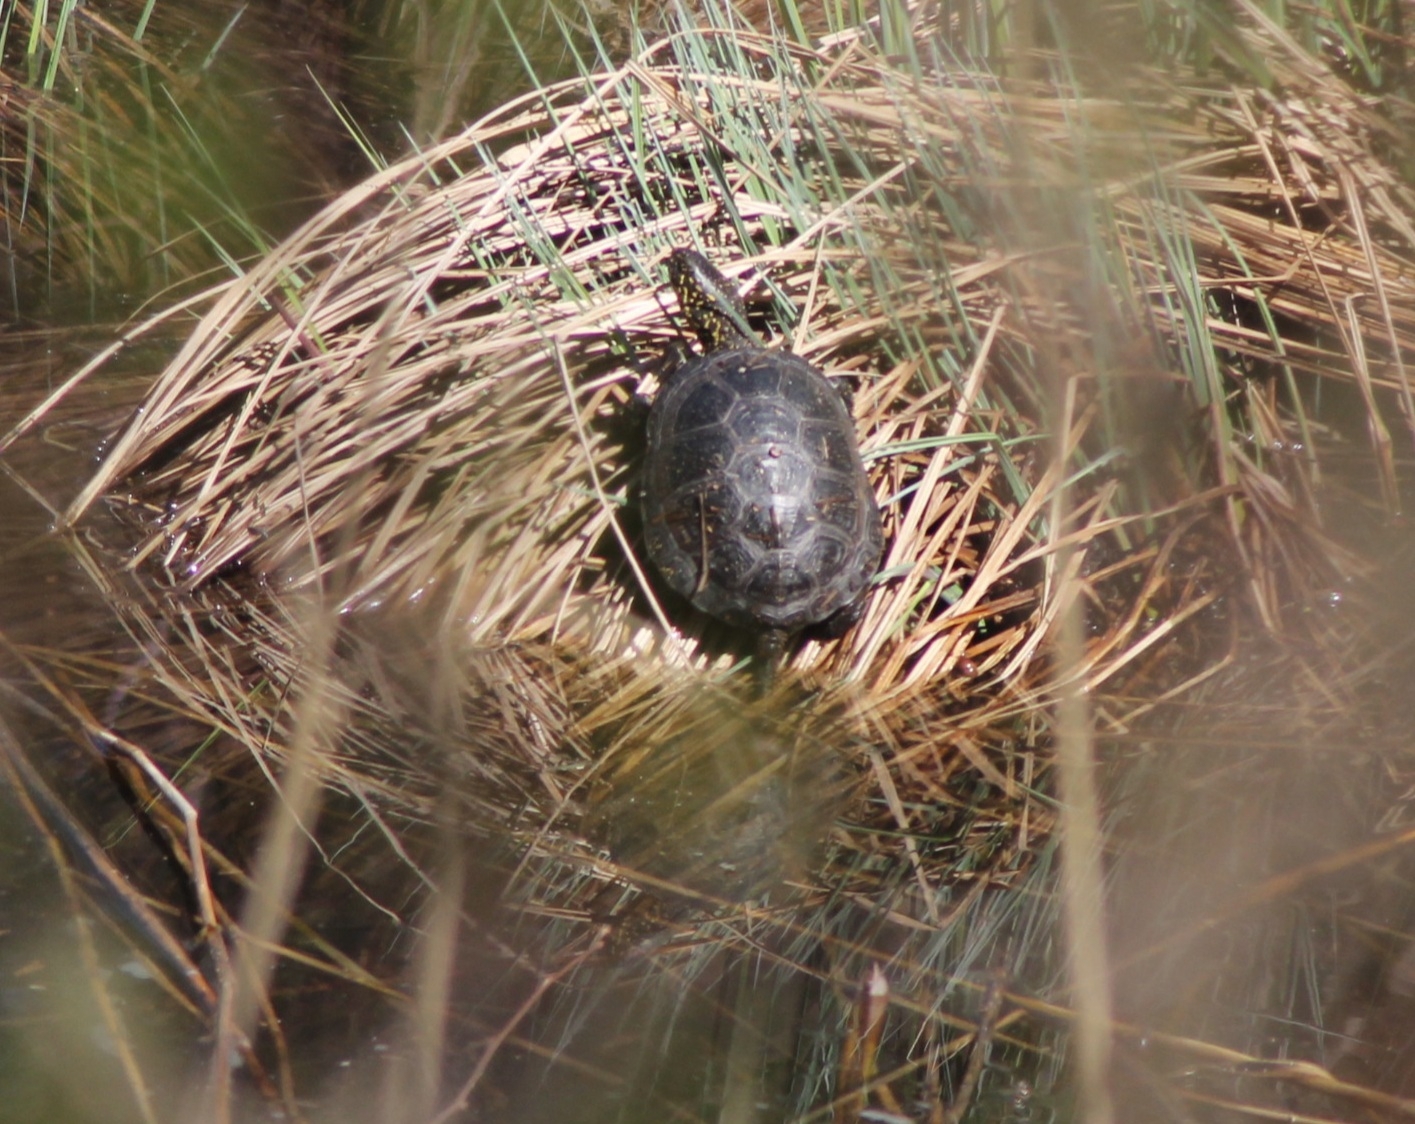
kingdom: Animalia
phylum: Chordata
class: Testudines
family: Emydidae
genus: Emys
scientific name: Emys orbicularis
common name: European pond turtle
